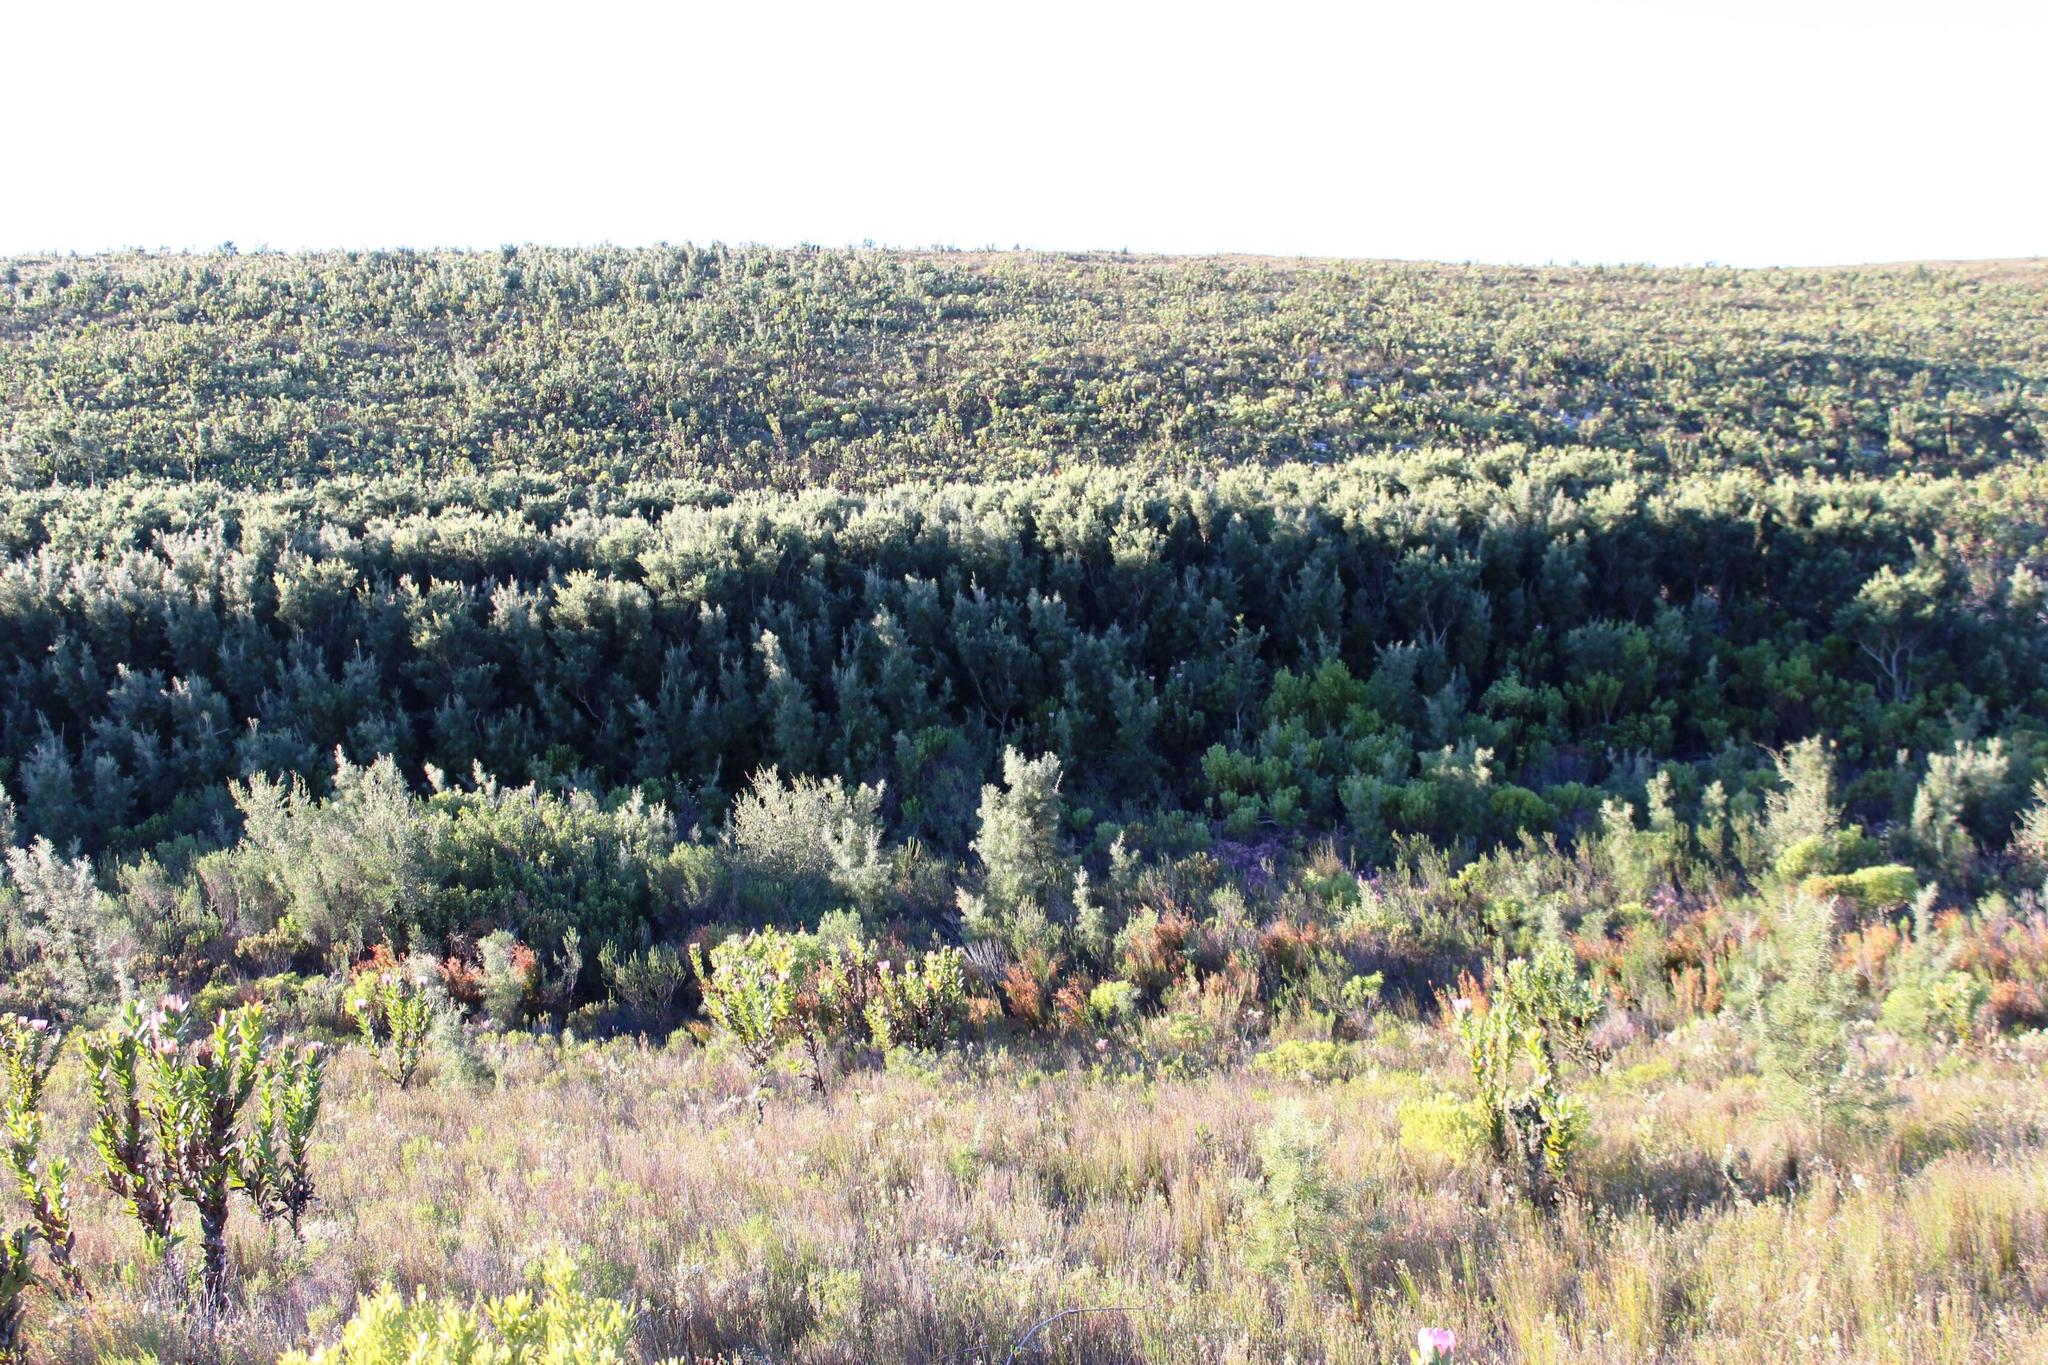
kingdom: Plantae
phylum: Tracheophyta
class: Magnoliopsida
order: Proteales
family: Proteaceae
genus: Hakea
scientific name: Hakea gibbosa
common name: Rock hakea
